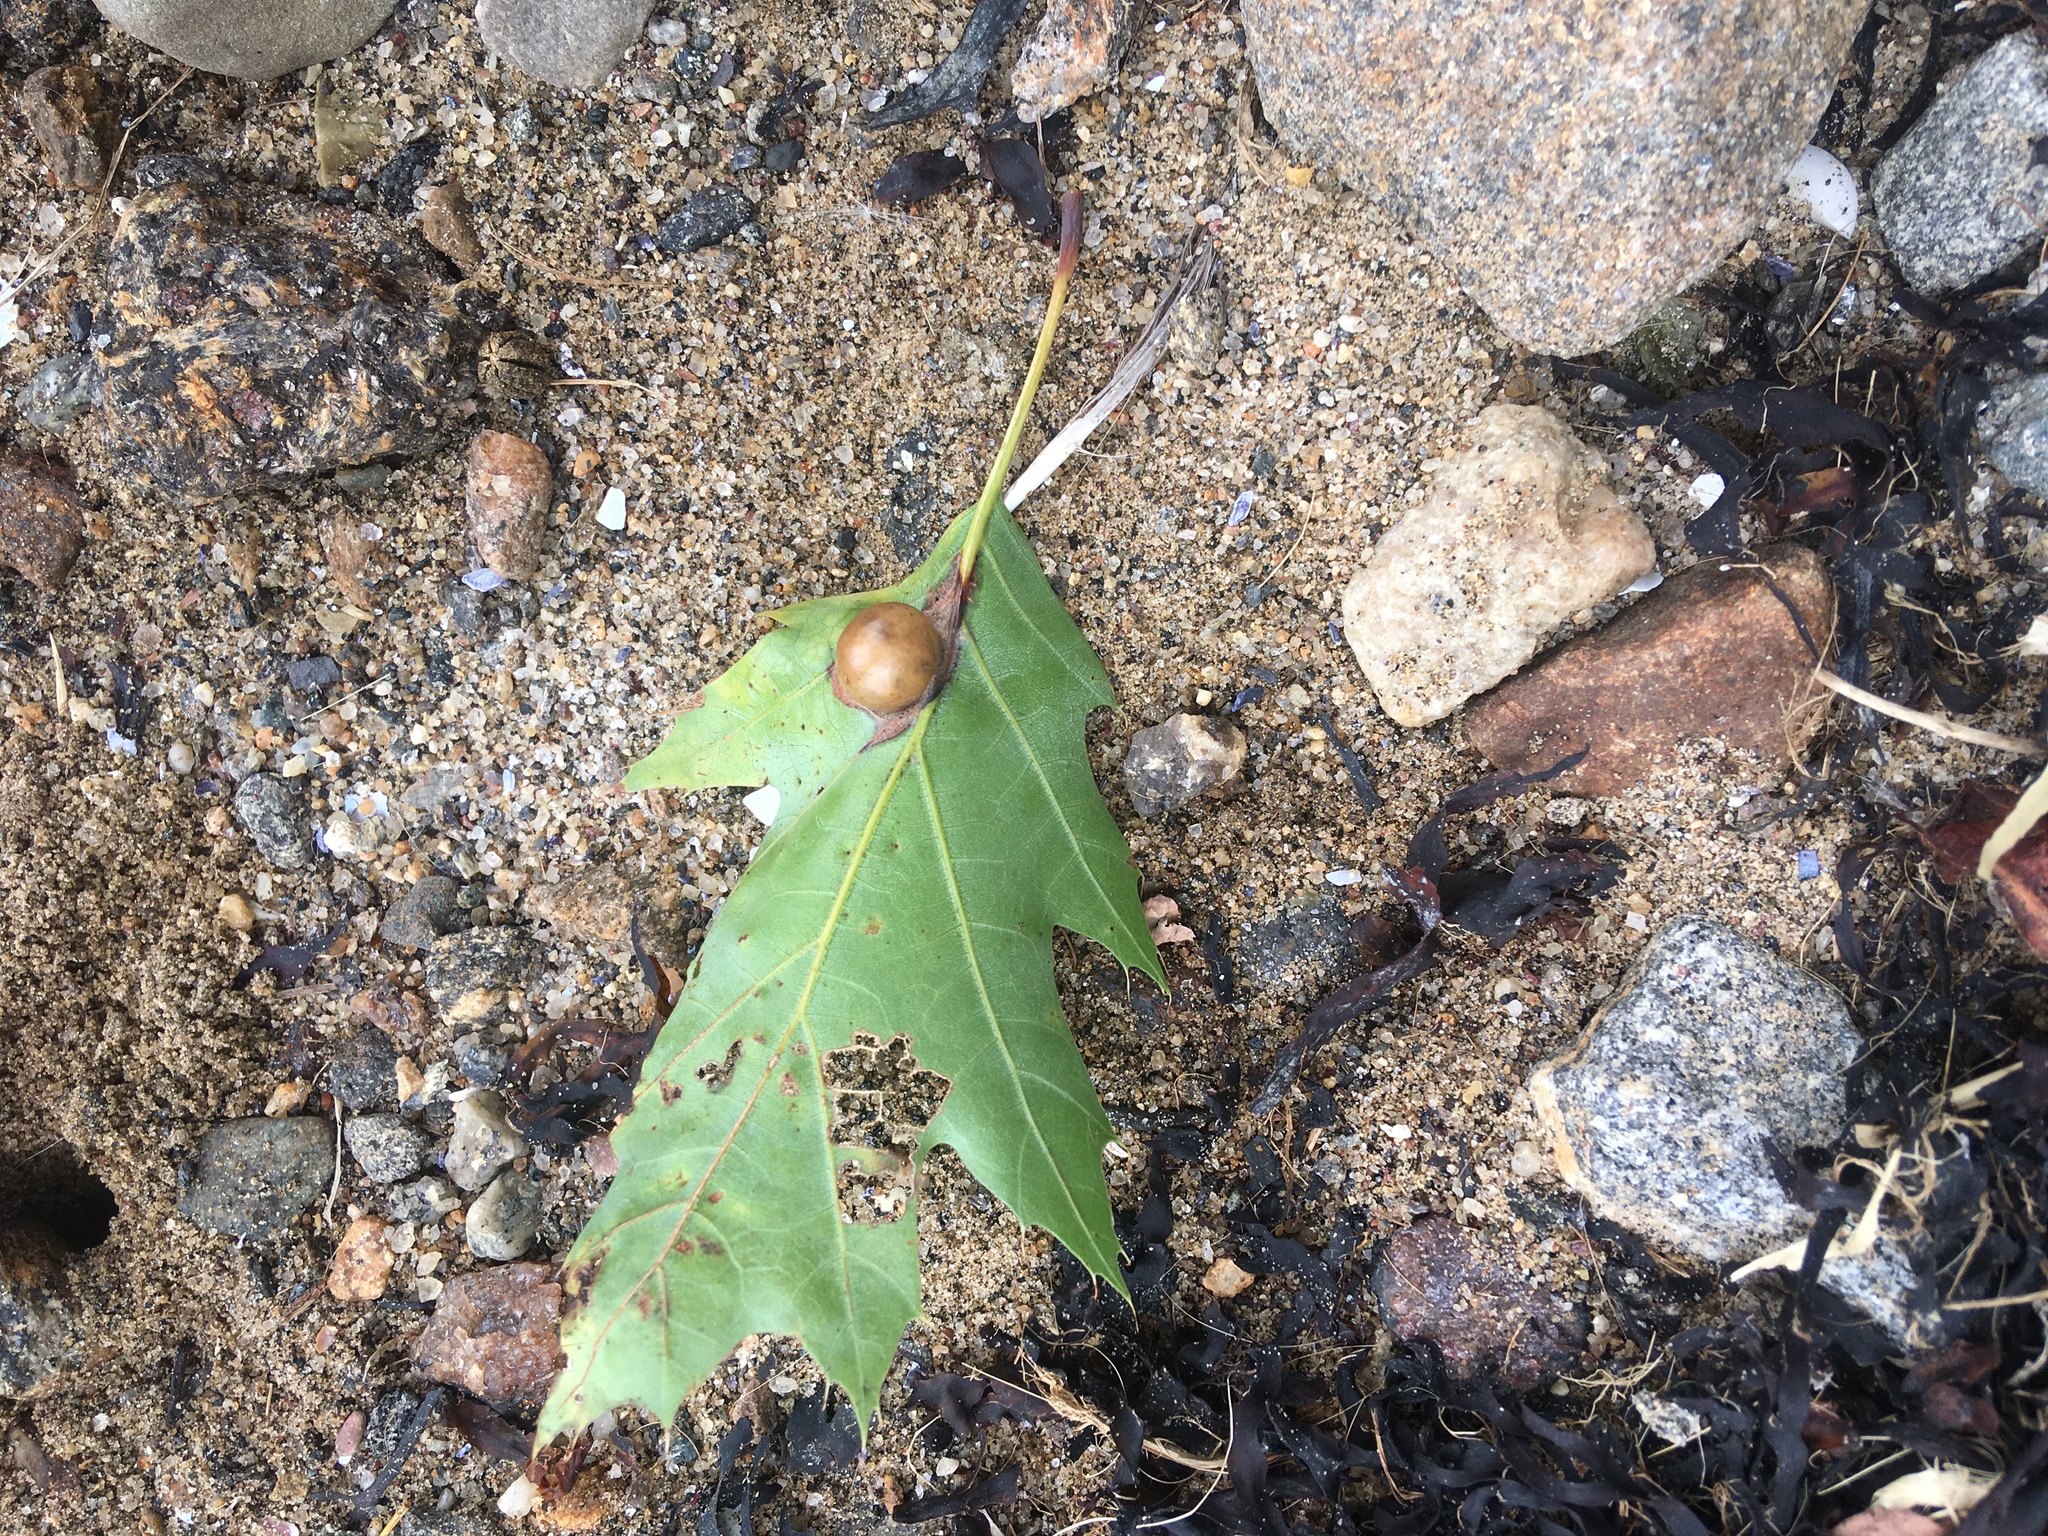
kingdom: Animalia
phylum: Arthropoda
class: Insecta
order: Hymenoptera
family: Cynipidae
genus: Amphibolips
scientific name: Amphibolips
